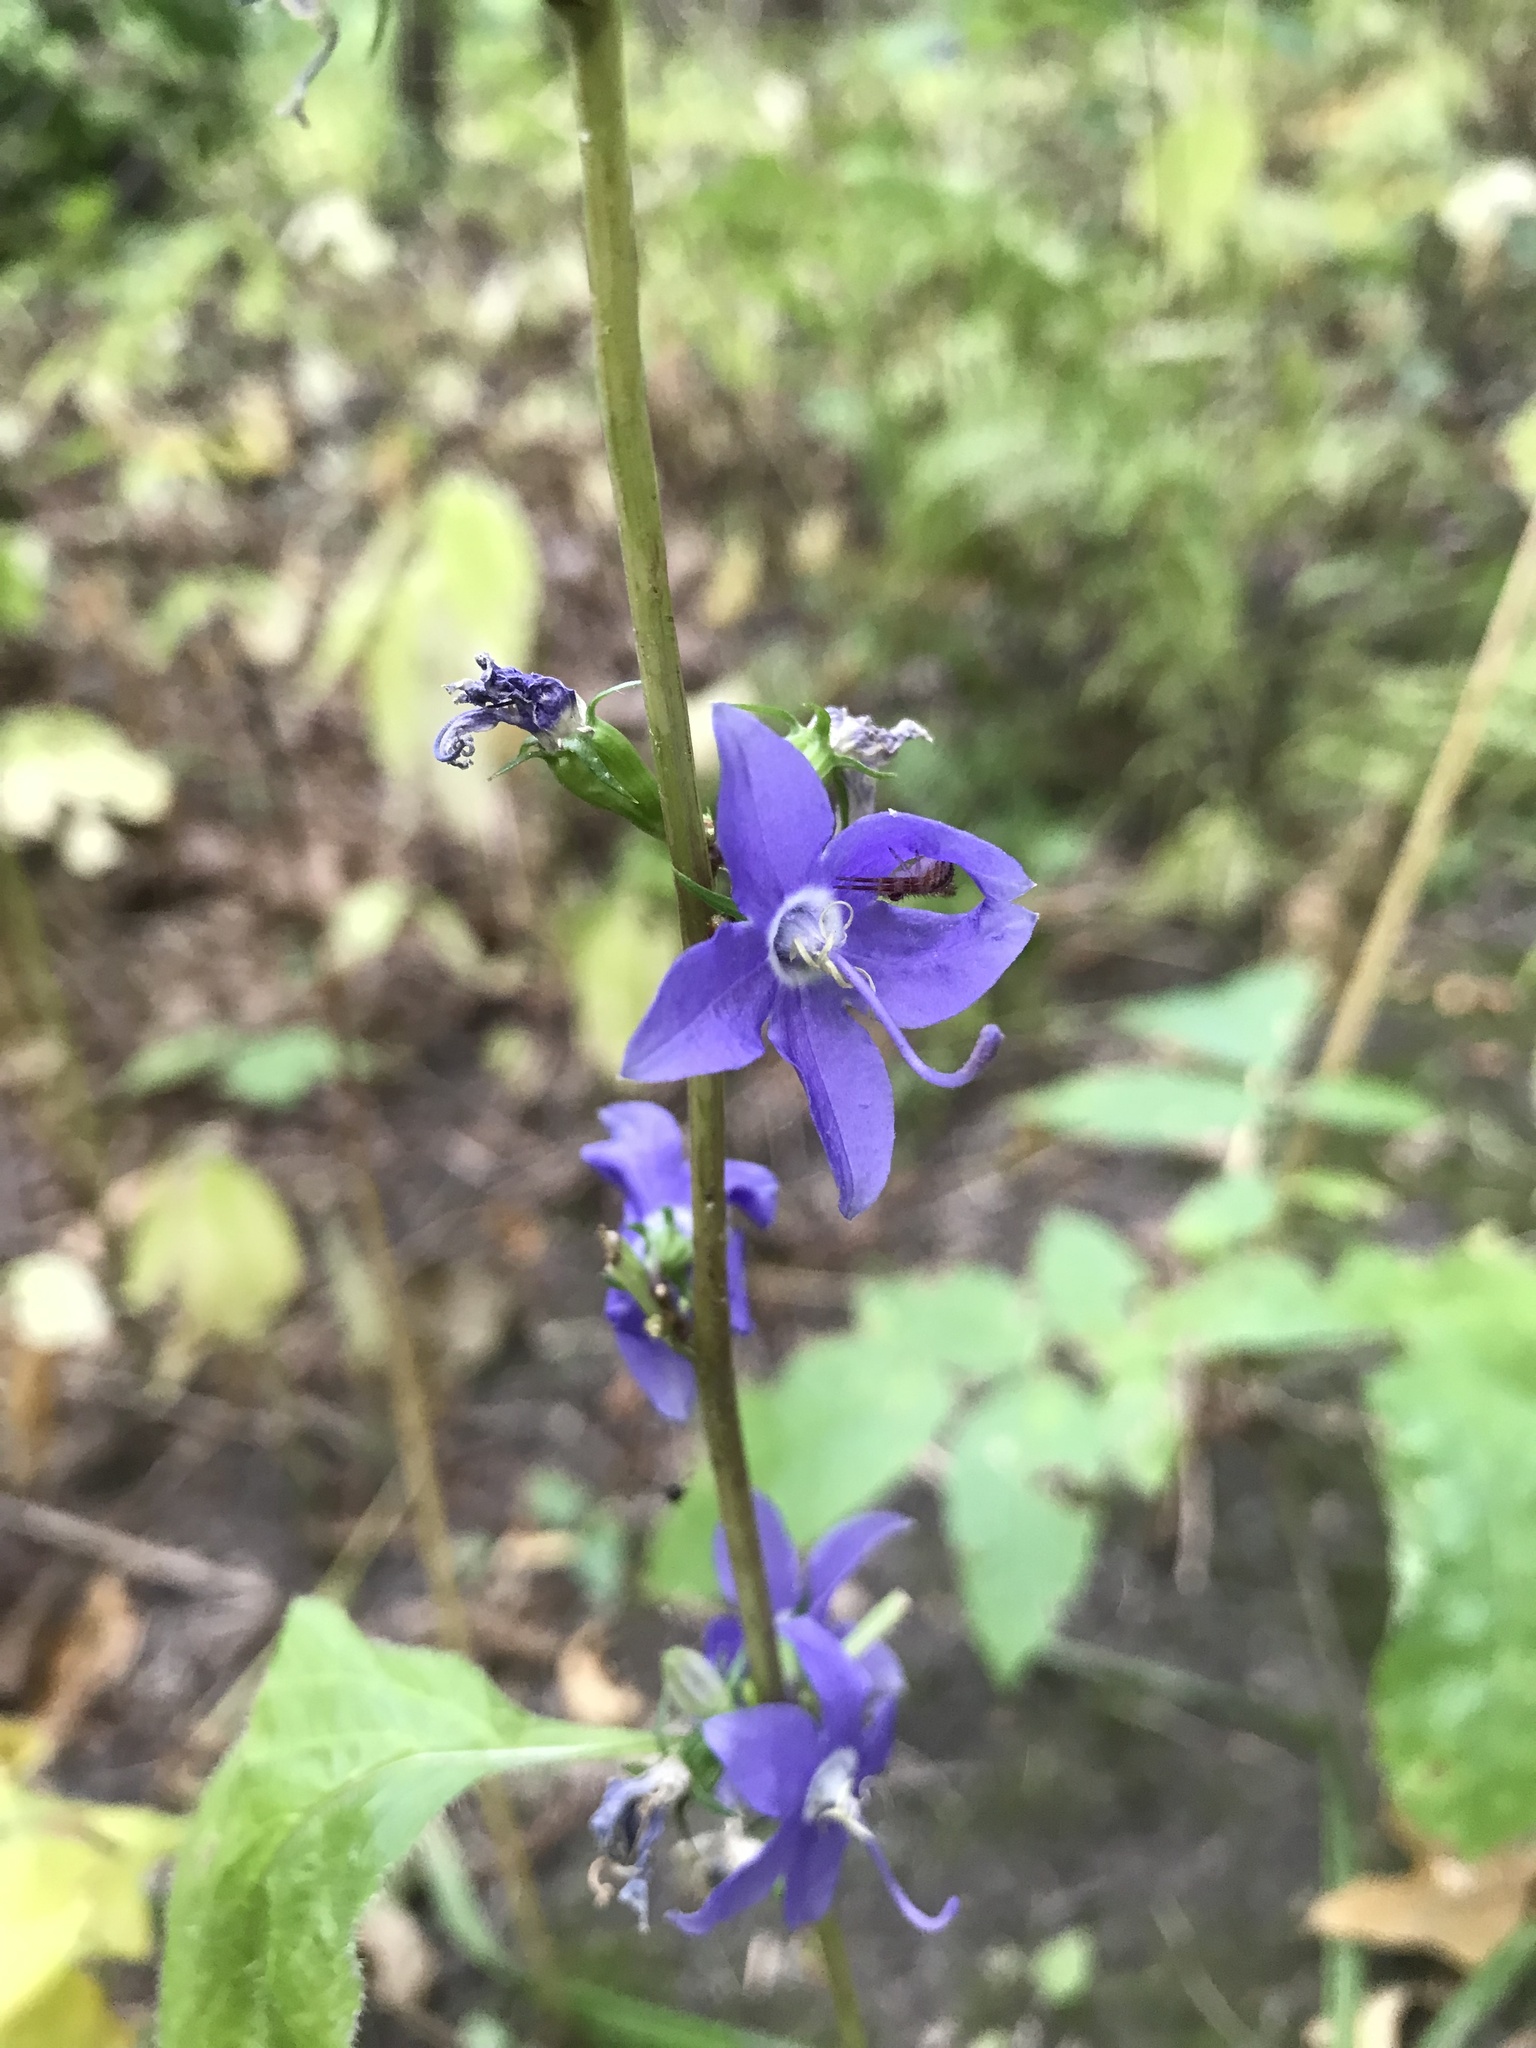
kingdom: Plantae
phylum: Tracheophyta
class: Magnoliopsida
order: Asterales
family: Campanulaceae
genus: Campanulastrum
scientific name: Campanulastrum americanum
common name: American bellflower
